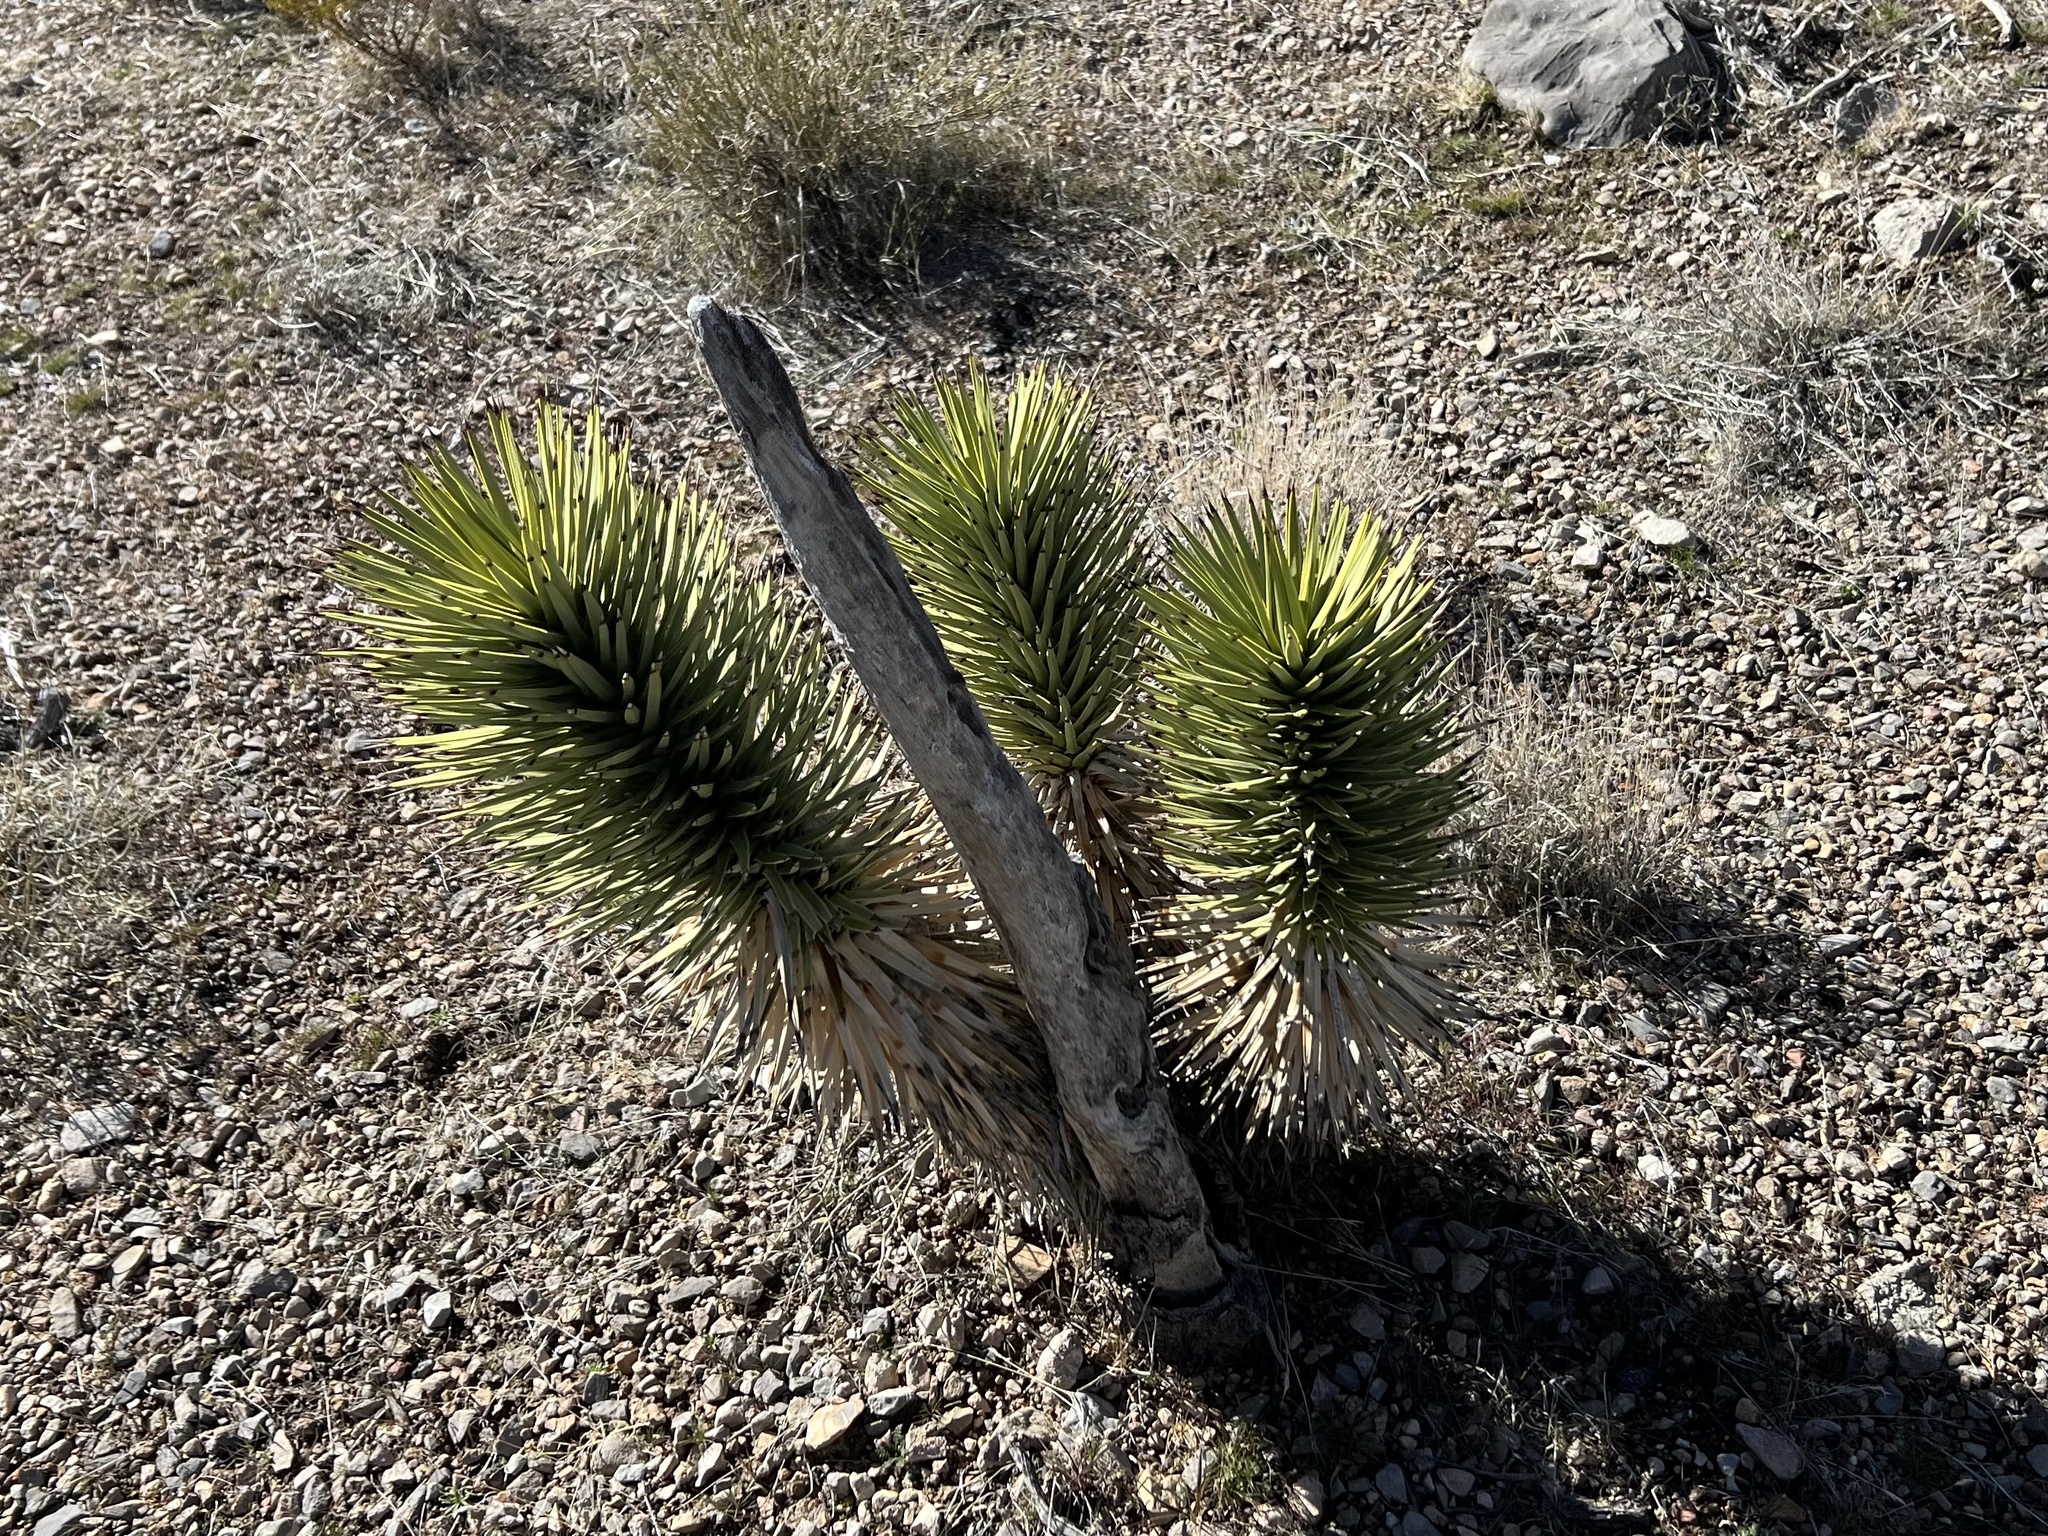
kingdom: Plantae
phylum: Tracheophyta
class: Liliopsida
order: Asparagales
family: Asparagaceae
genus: Yucca
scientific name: Yucca brevifolia
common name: Joshua tree
